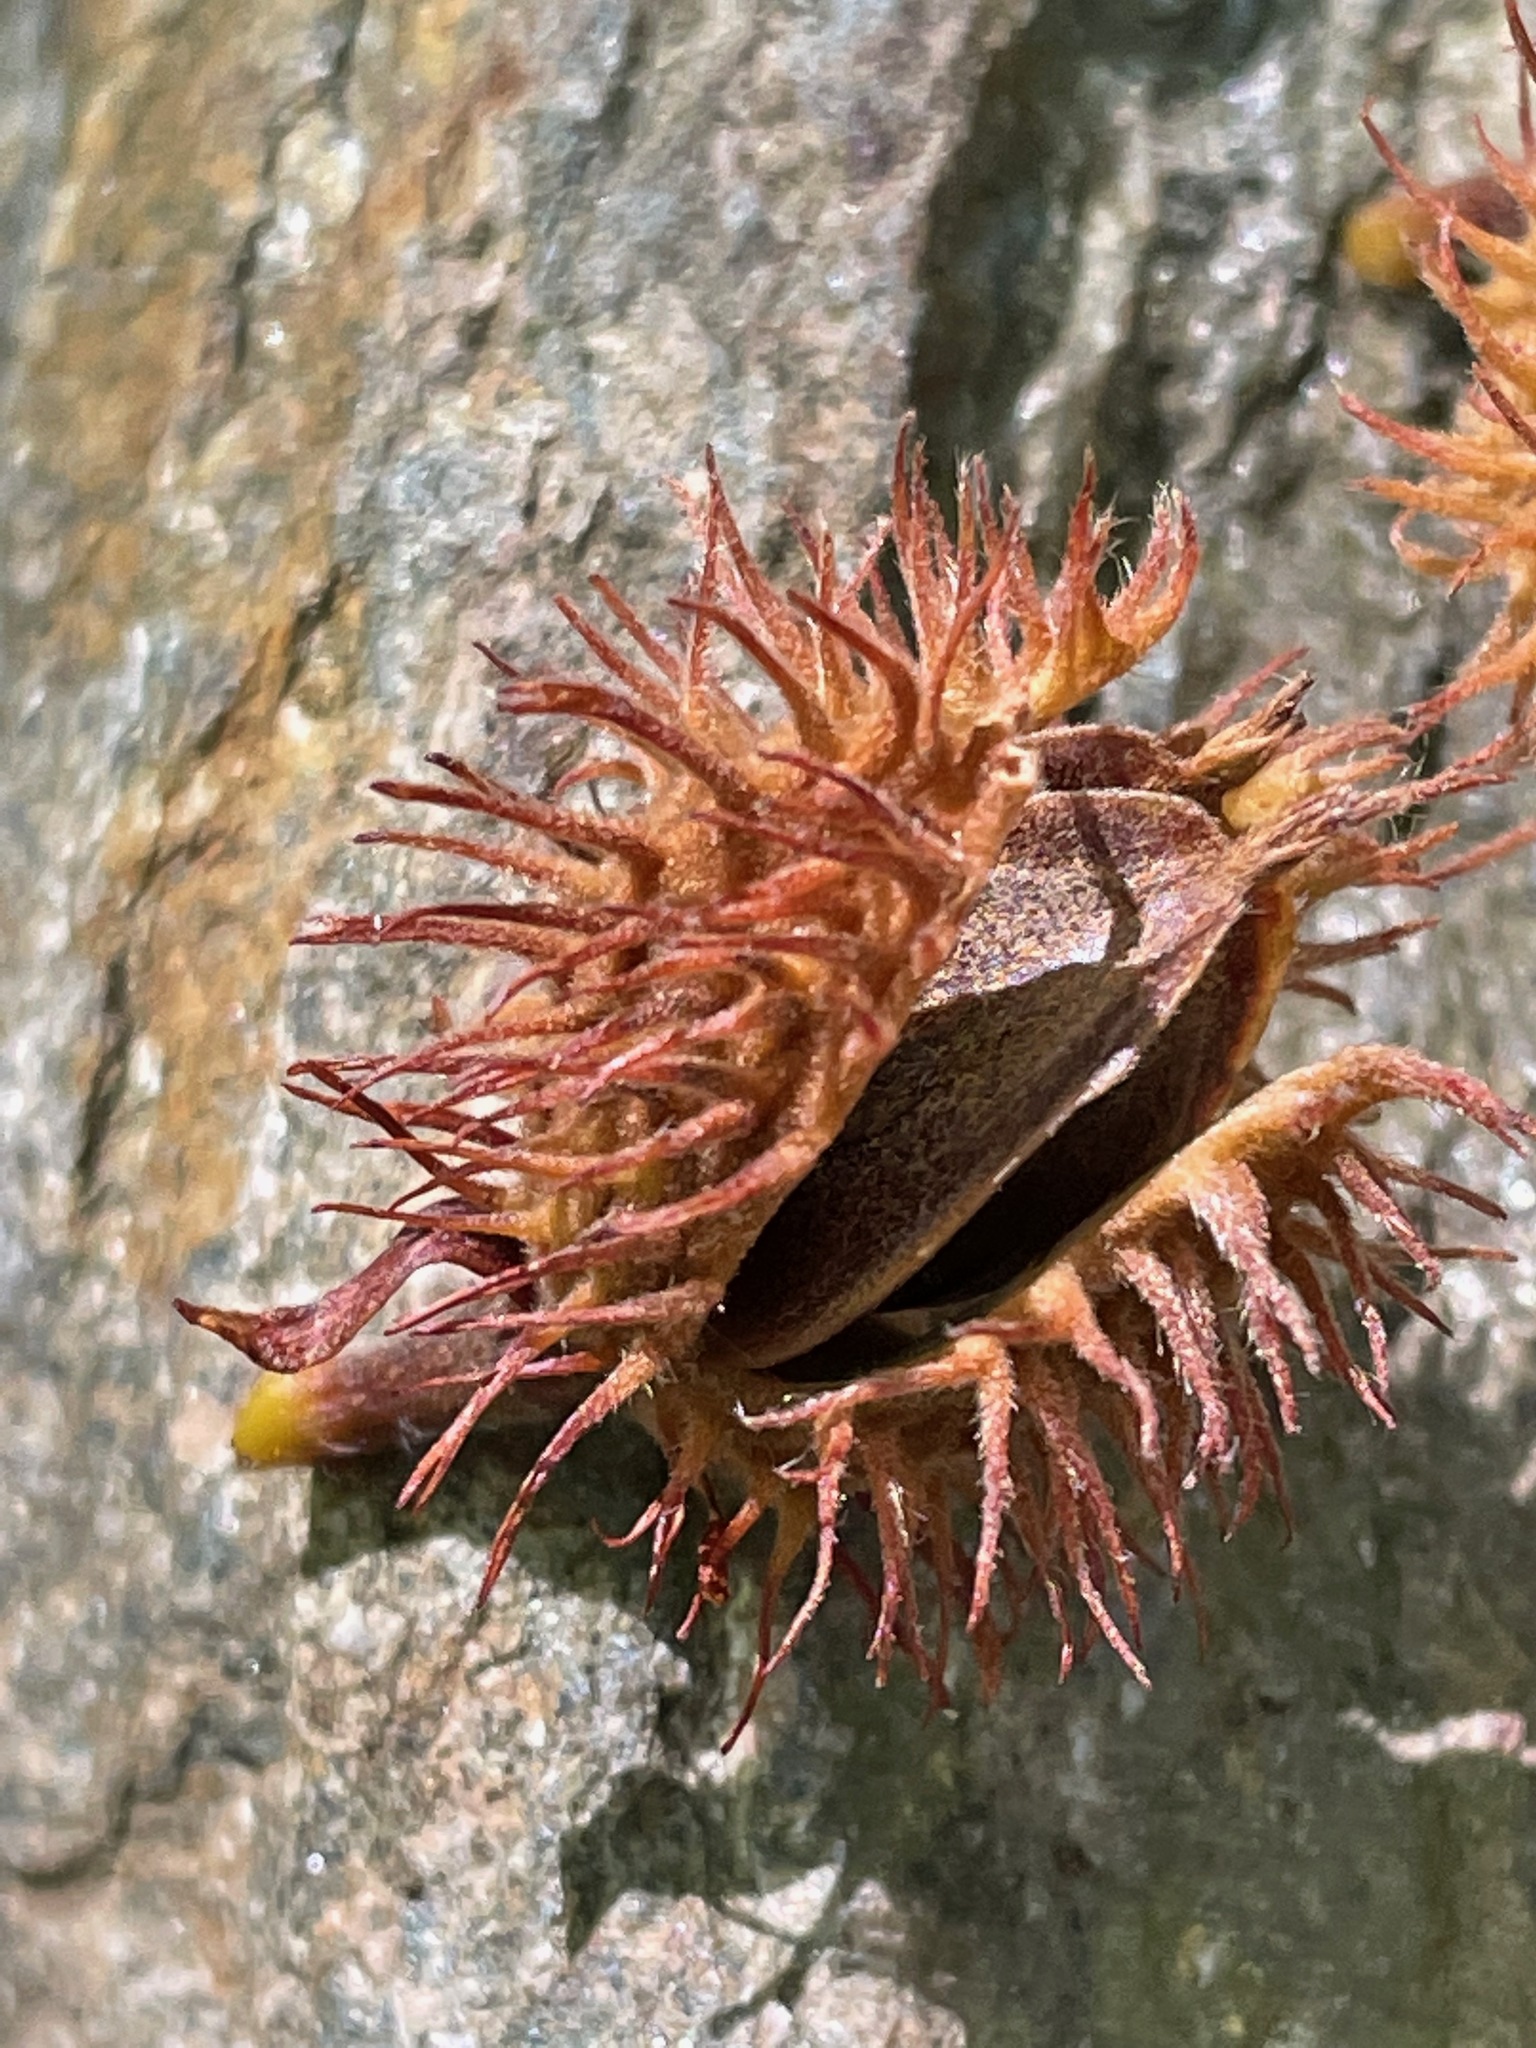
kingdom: Plantae
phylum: Tracheophyta
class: Magnoliopsida
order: Fagales
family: Fagaceae
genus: Fagus
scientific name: Fagus grandifolia
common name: American beech
